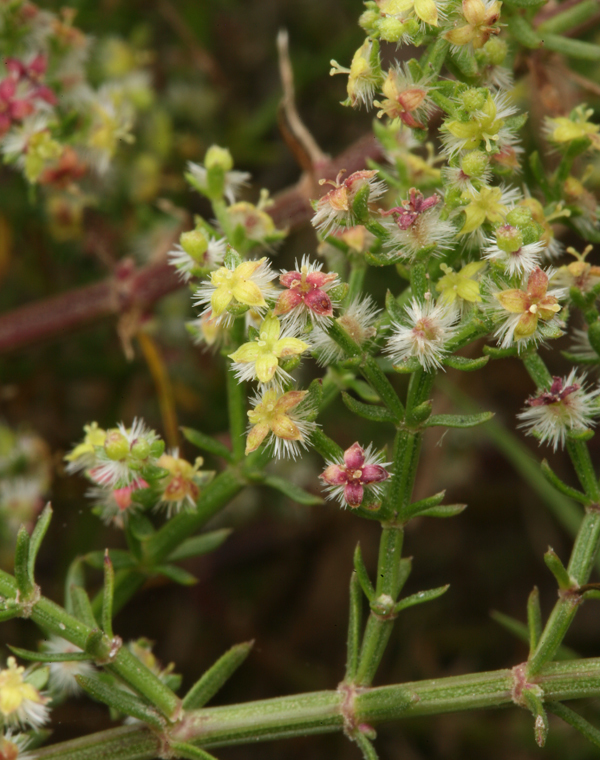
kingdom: Plantae
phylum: Tracheophyta
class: Magnoliopsida
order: Gentianales
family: Rubiaceae
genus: Galium
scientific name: Galium angustifolium
